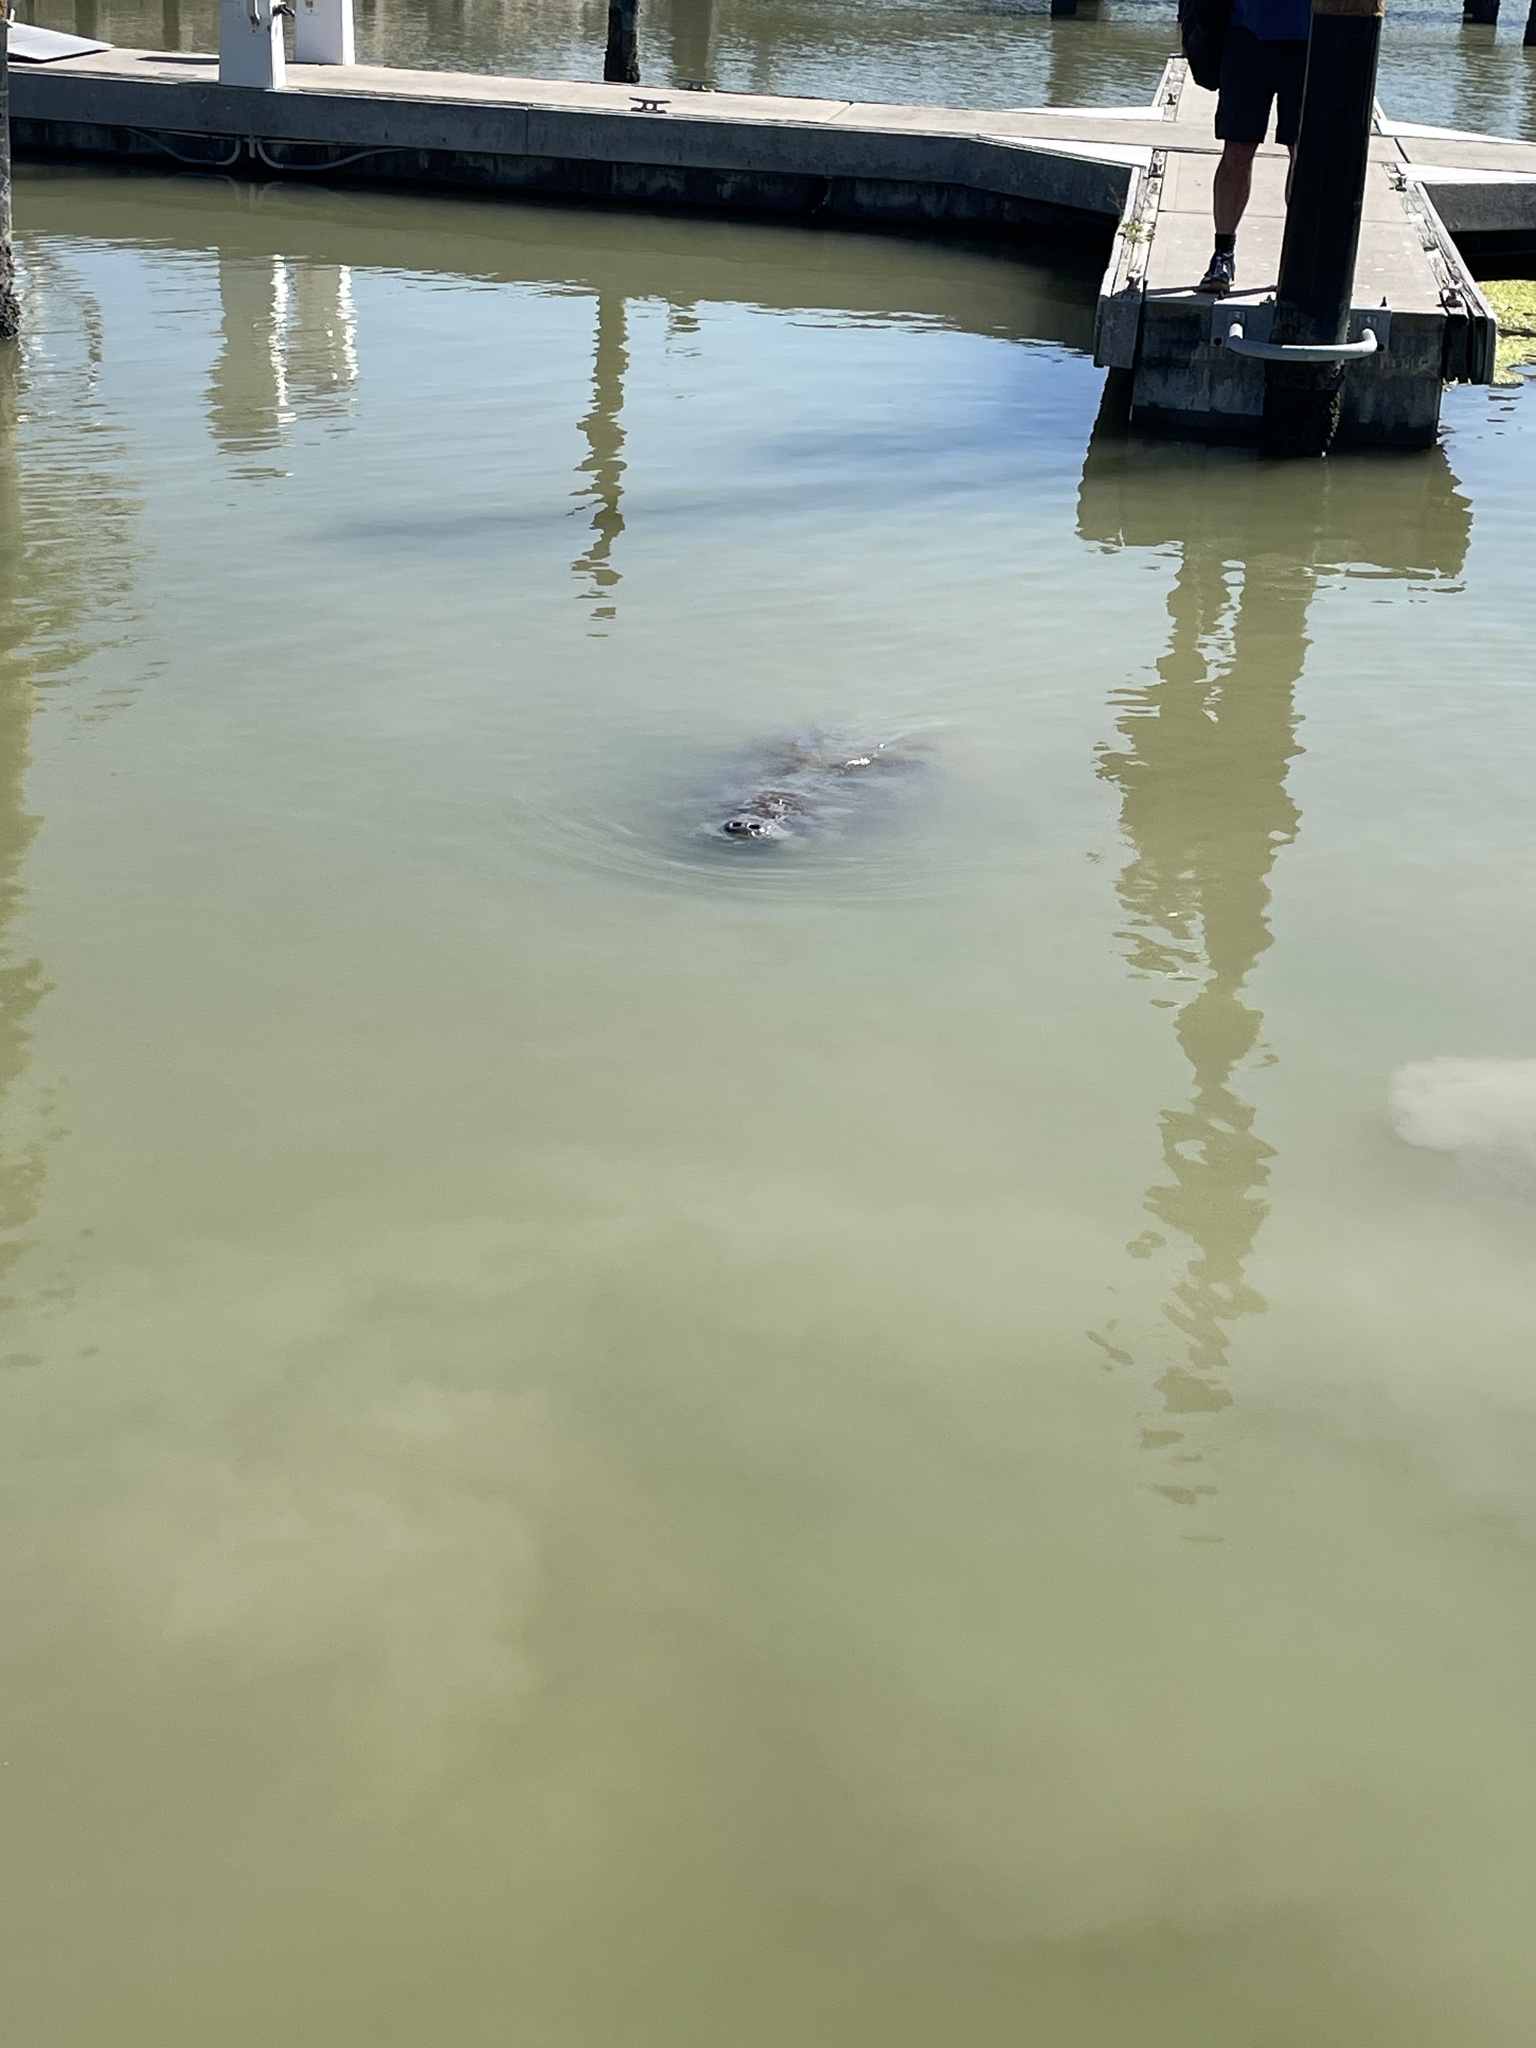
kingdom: Animalia
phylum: Chordata
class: Mammalia
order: Sirenia
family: Trichechidae
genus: Trichechus
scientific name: Trichechus manatus
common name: West indian manatee
